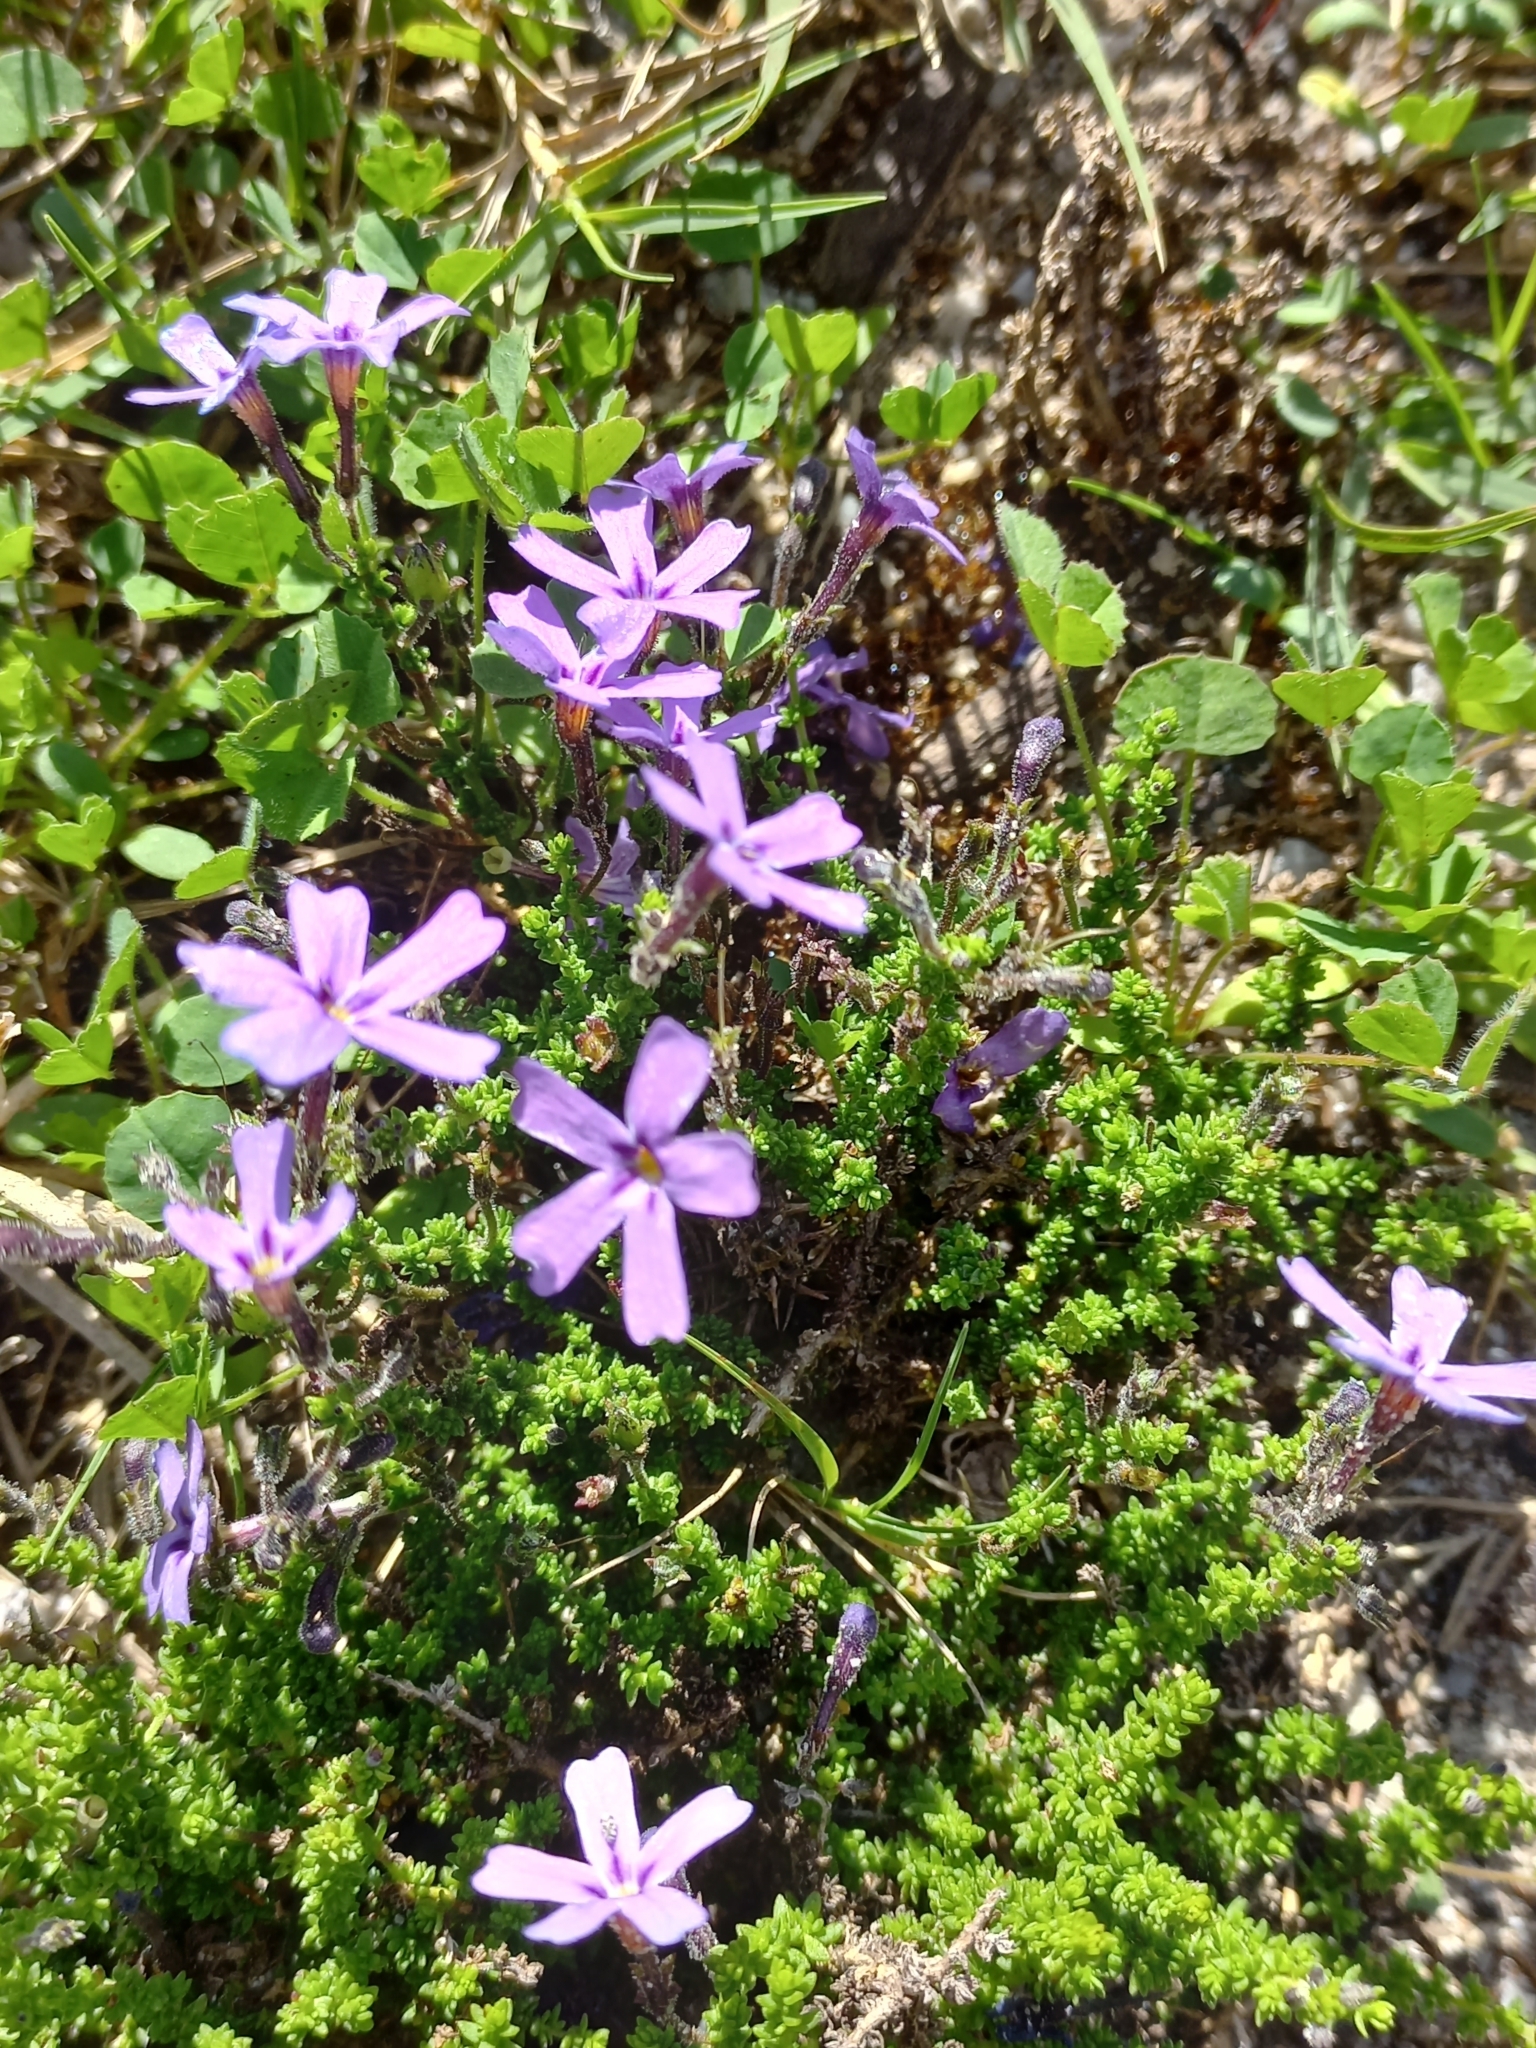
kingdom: Plantae
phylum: Tracheophyta
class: Magnoliopsida
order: Lamiales
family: Scrophulariaceae
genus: Jamesbrittenia
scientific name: Jamesbrittenia microphylla
